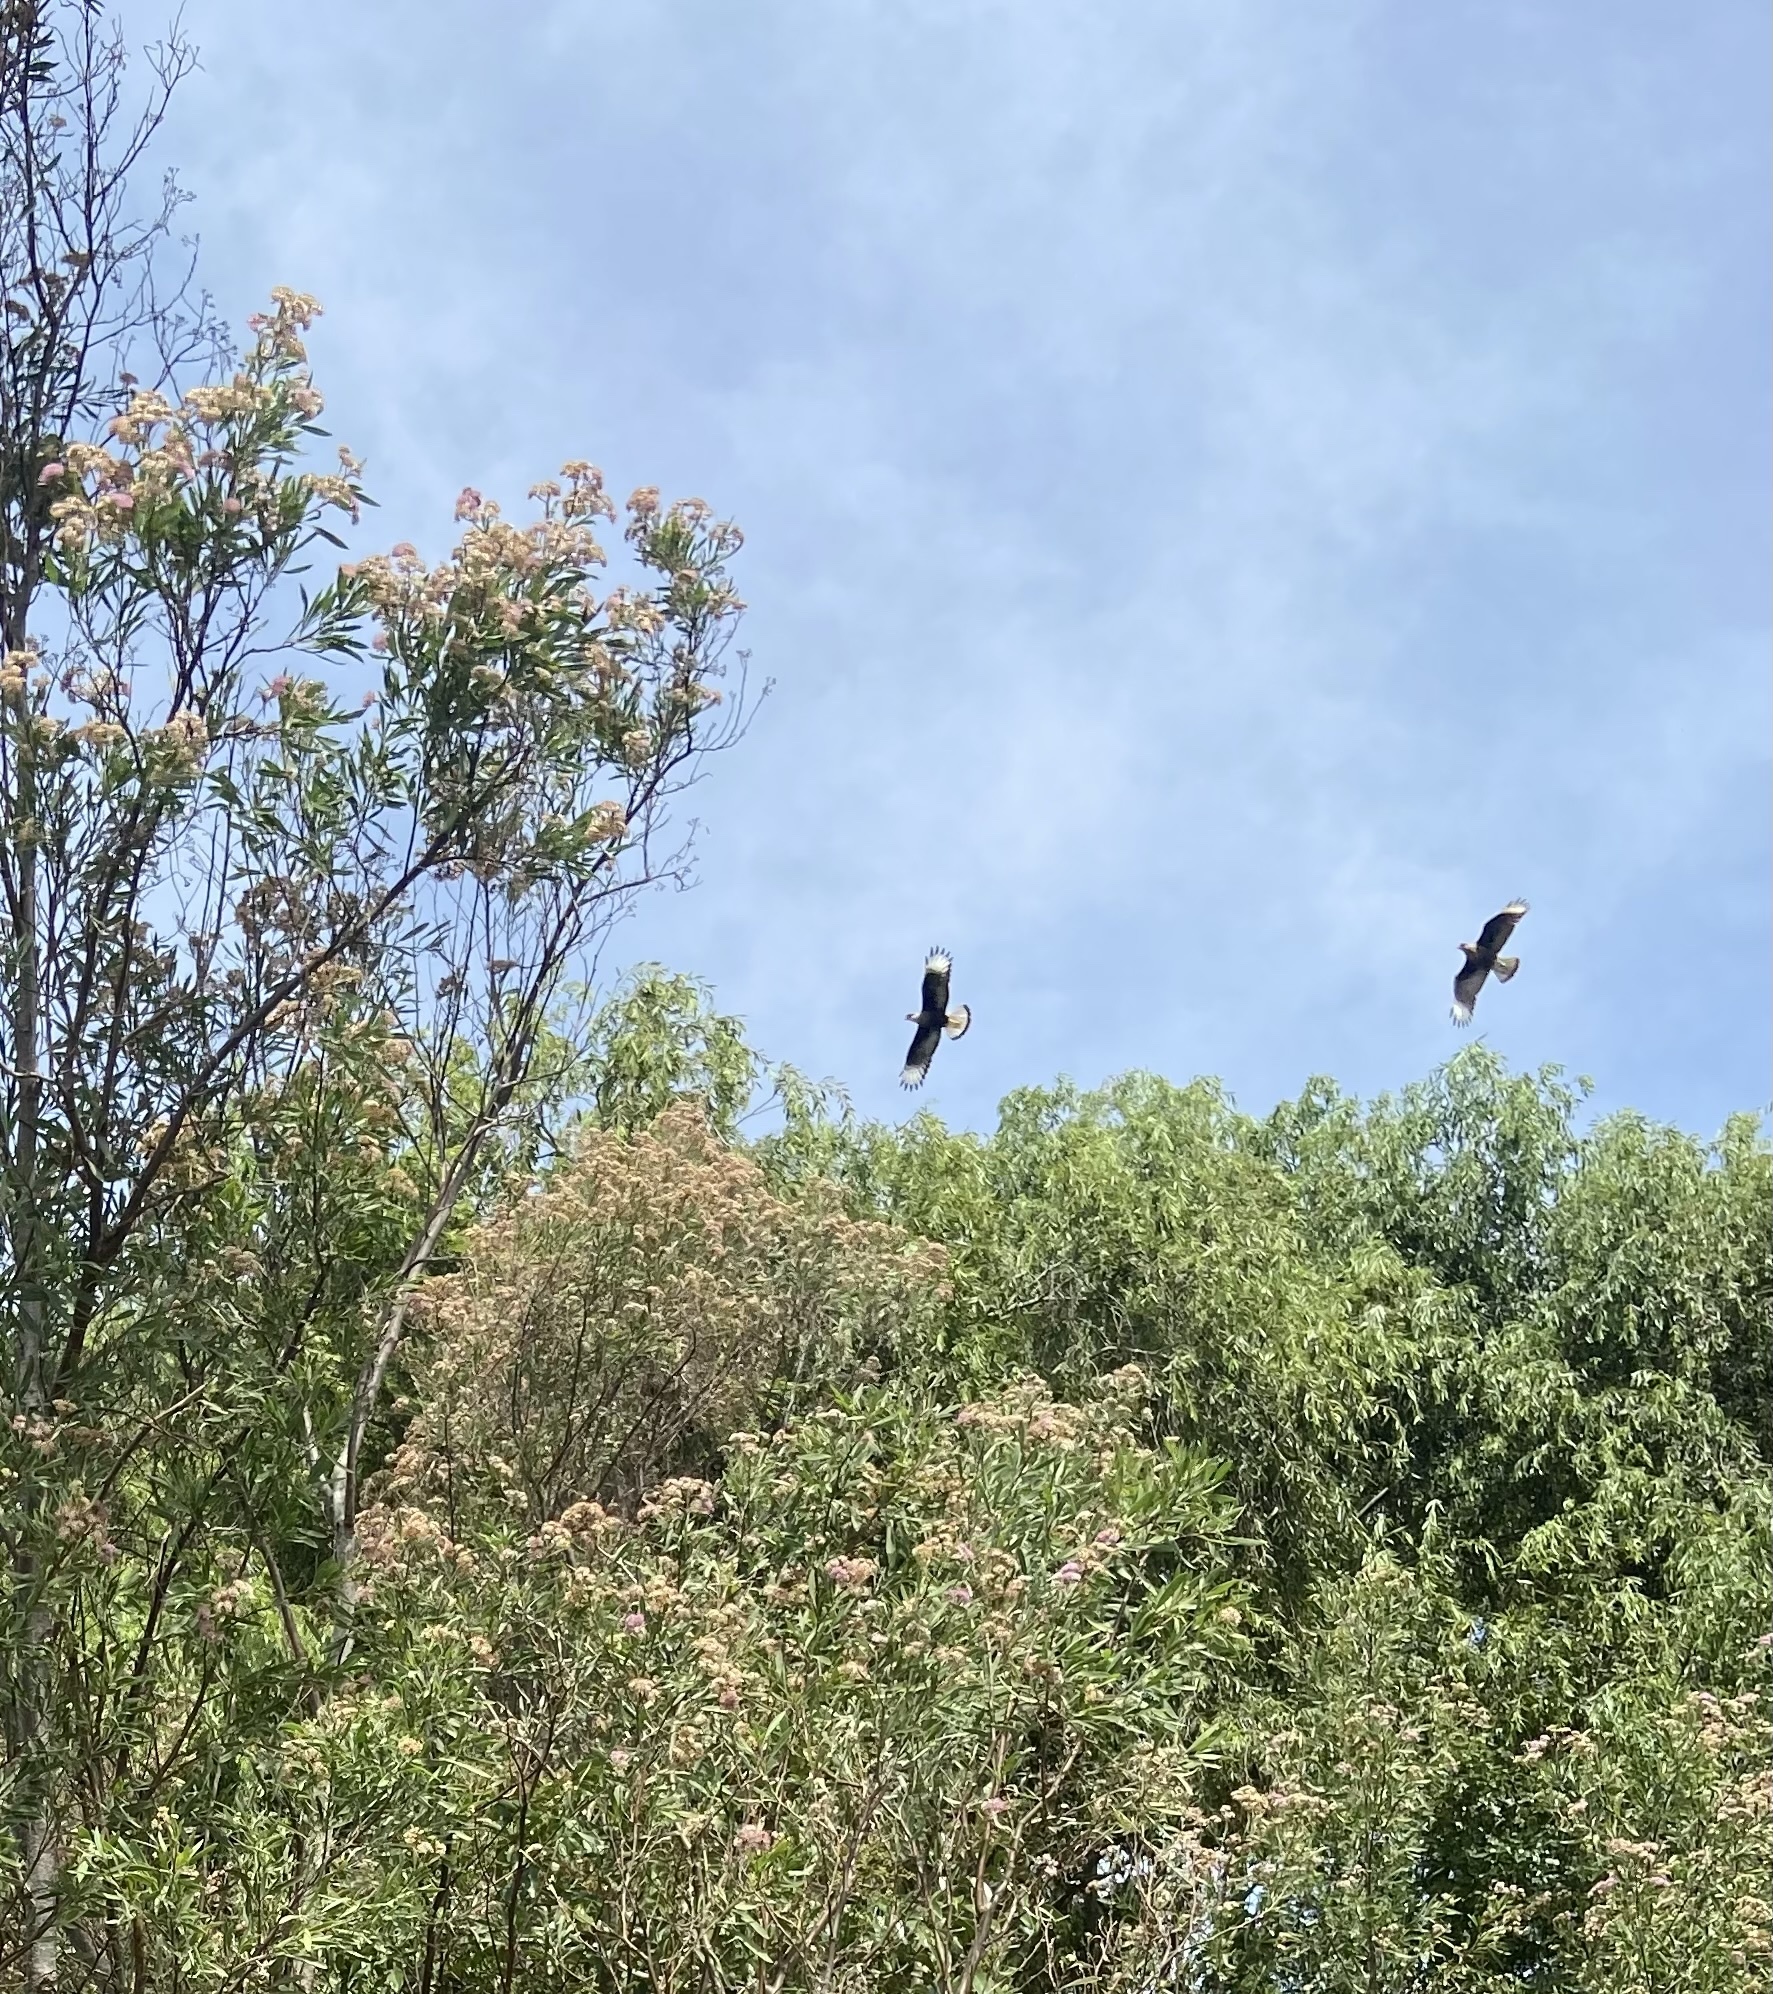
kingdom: Animalia
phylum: Chordata
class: Aves
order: Falconiformes
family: Falconidae
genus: Caracara
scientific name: Caracara plancus
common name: Southern caracara
